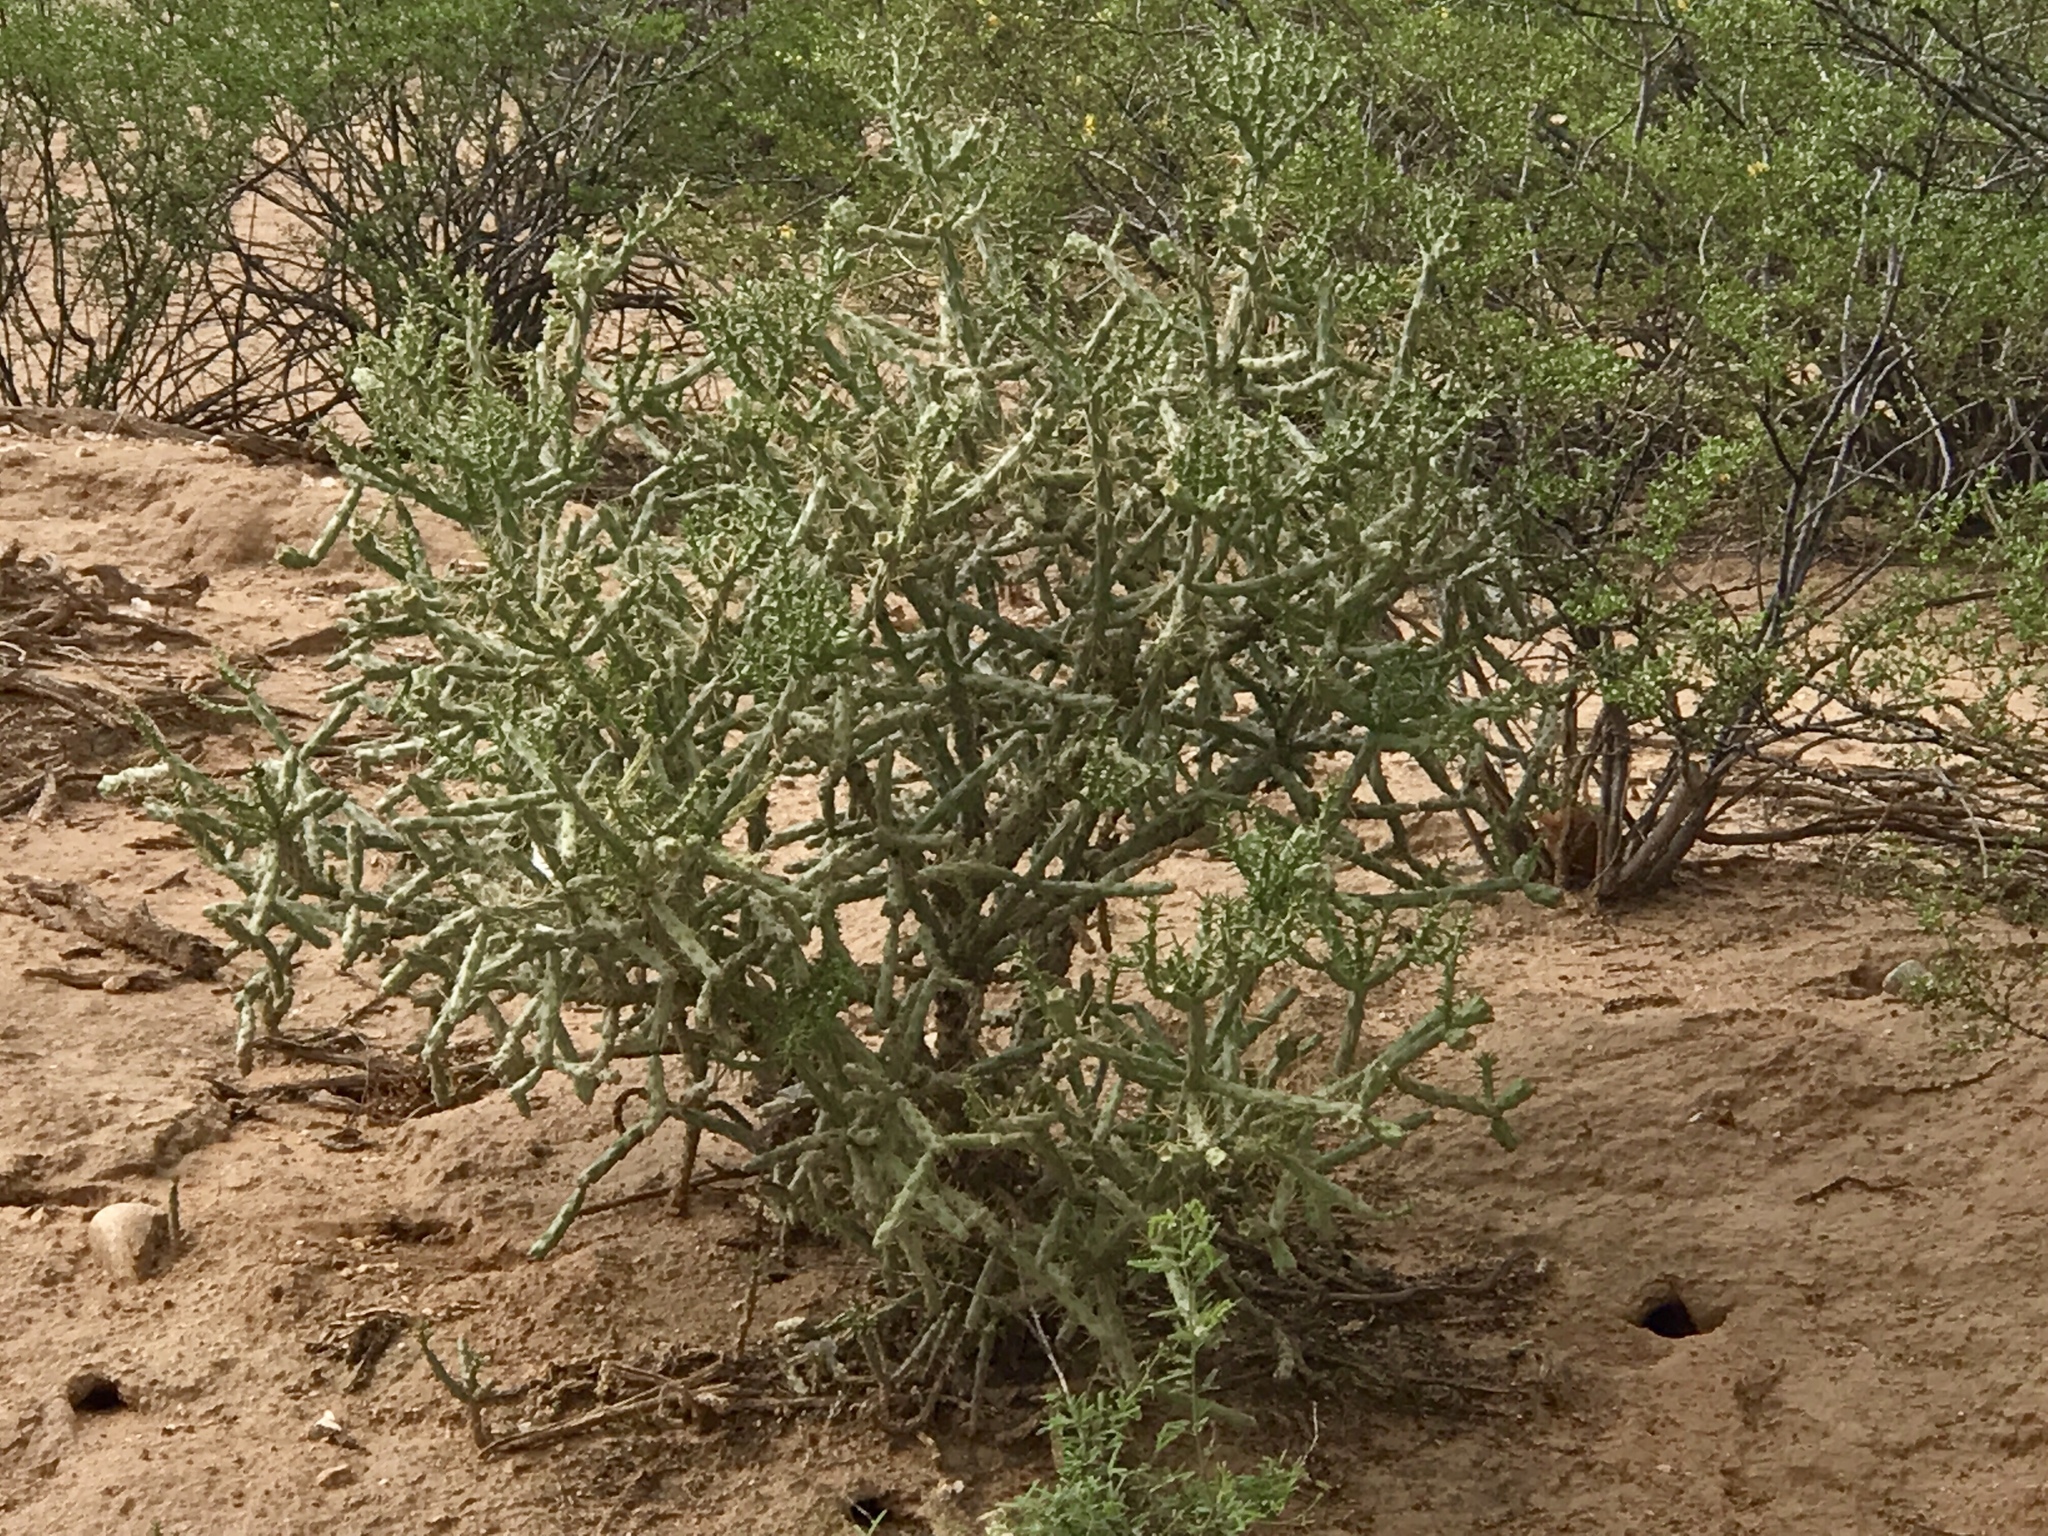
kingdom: Plantae
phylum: Tracheophyta
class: Magnoliopsida
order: Caryophyllales
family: Cactaceae
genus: Cylindropuntia
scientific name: Cylindropuntia arbuscula
